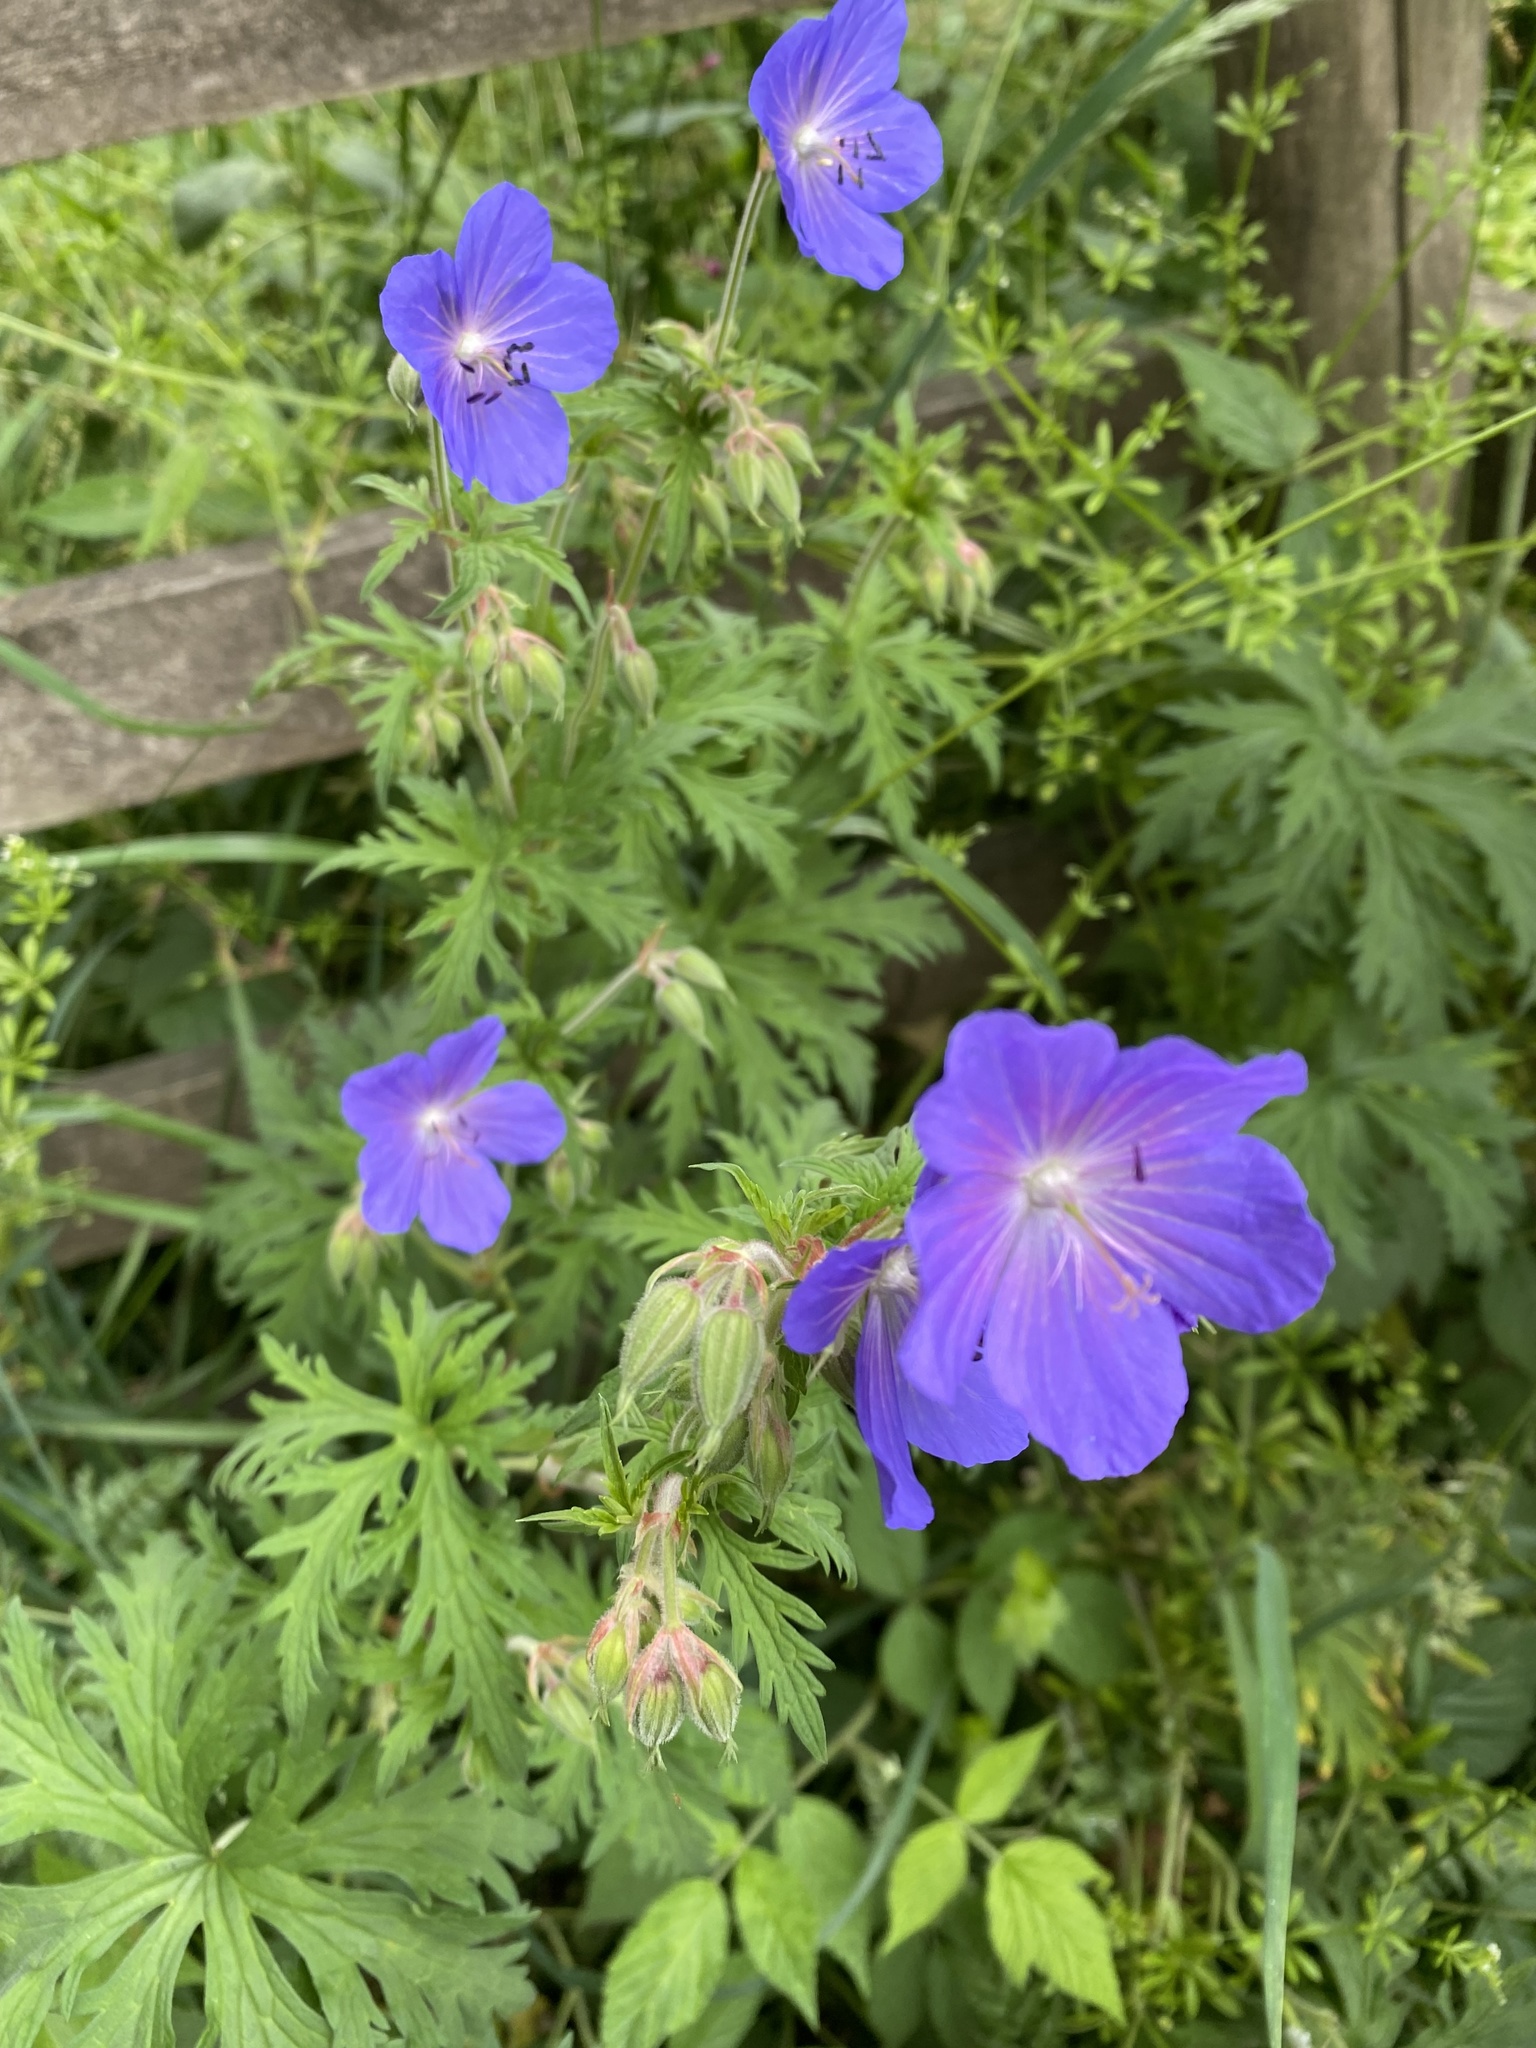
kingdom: Plantae
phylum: Tracheophyta
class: Magnoliopsida
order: Geraniales
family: Geraniaceae
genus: Geranium
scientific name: Geranium pratense
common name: Meadow crane's-bill
